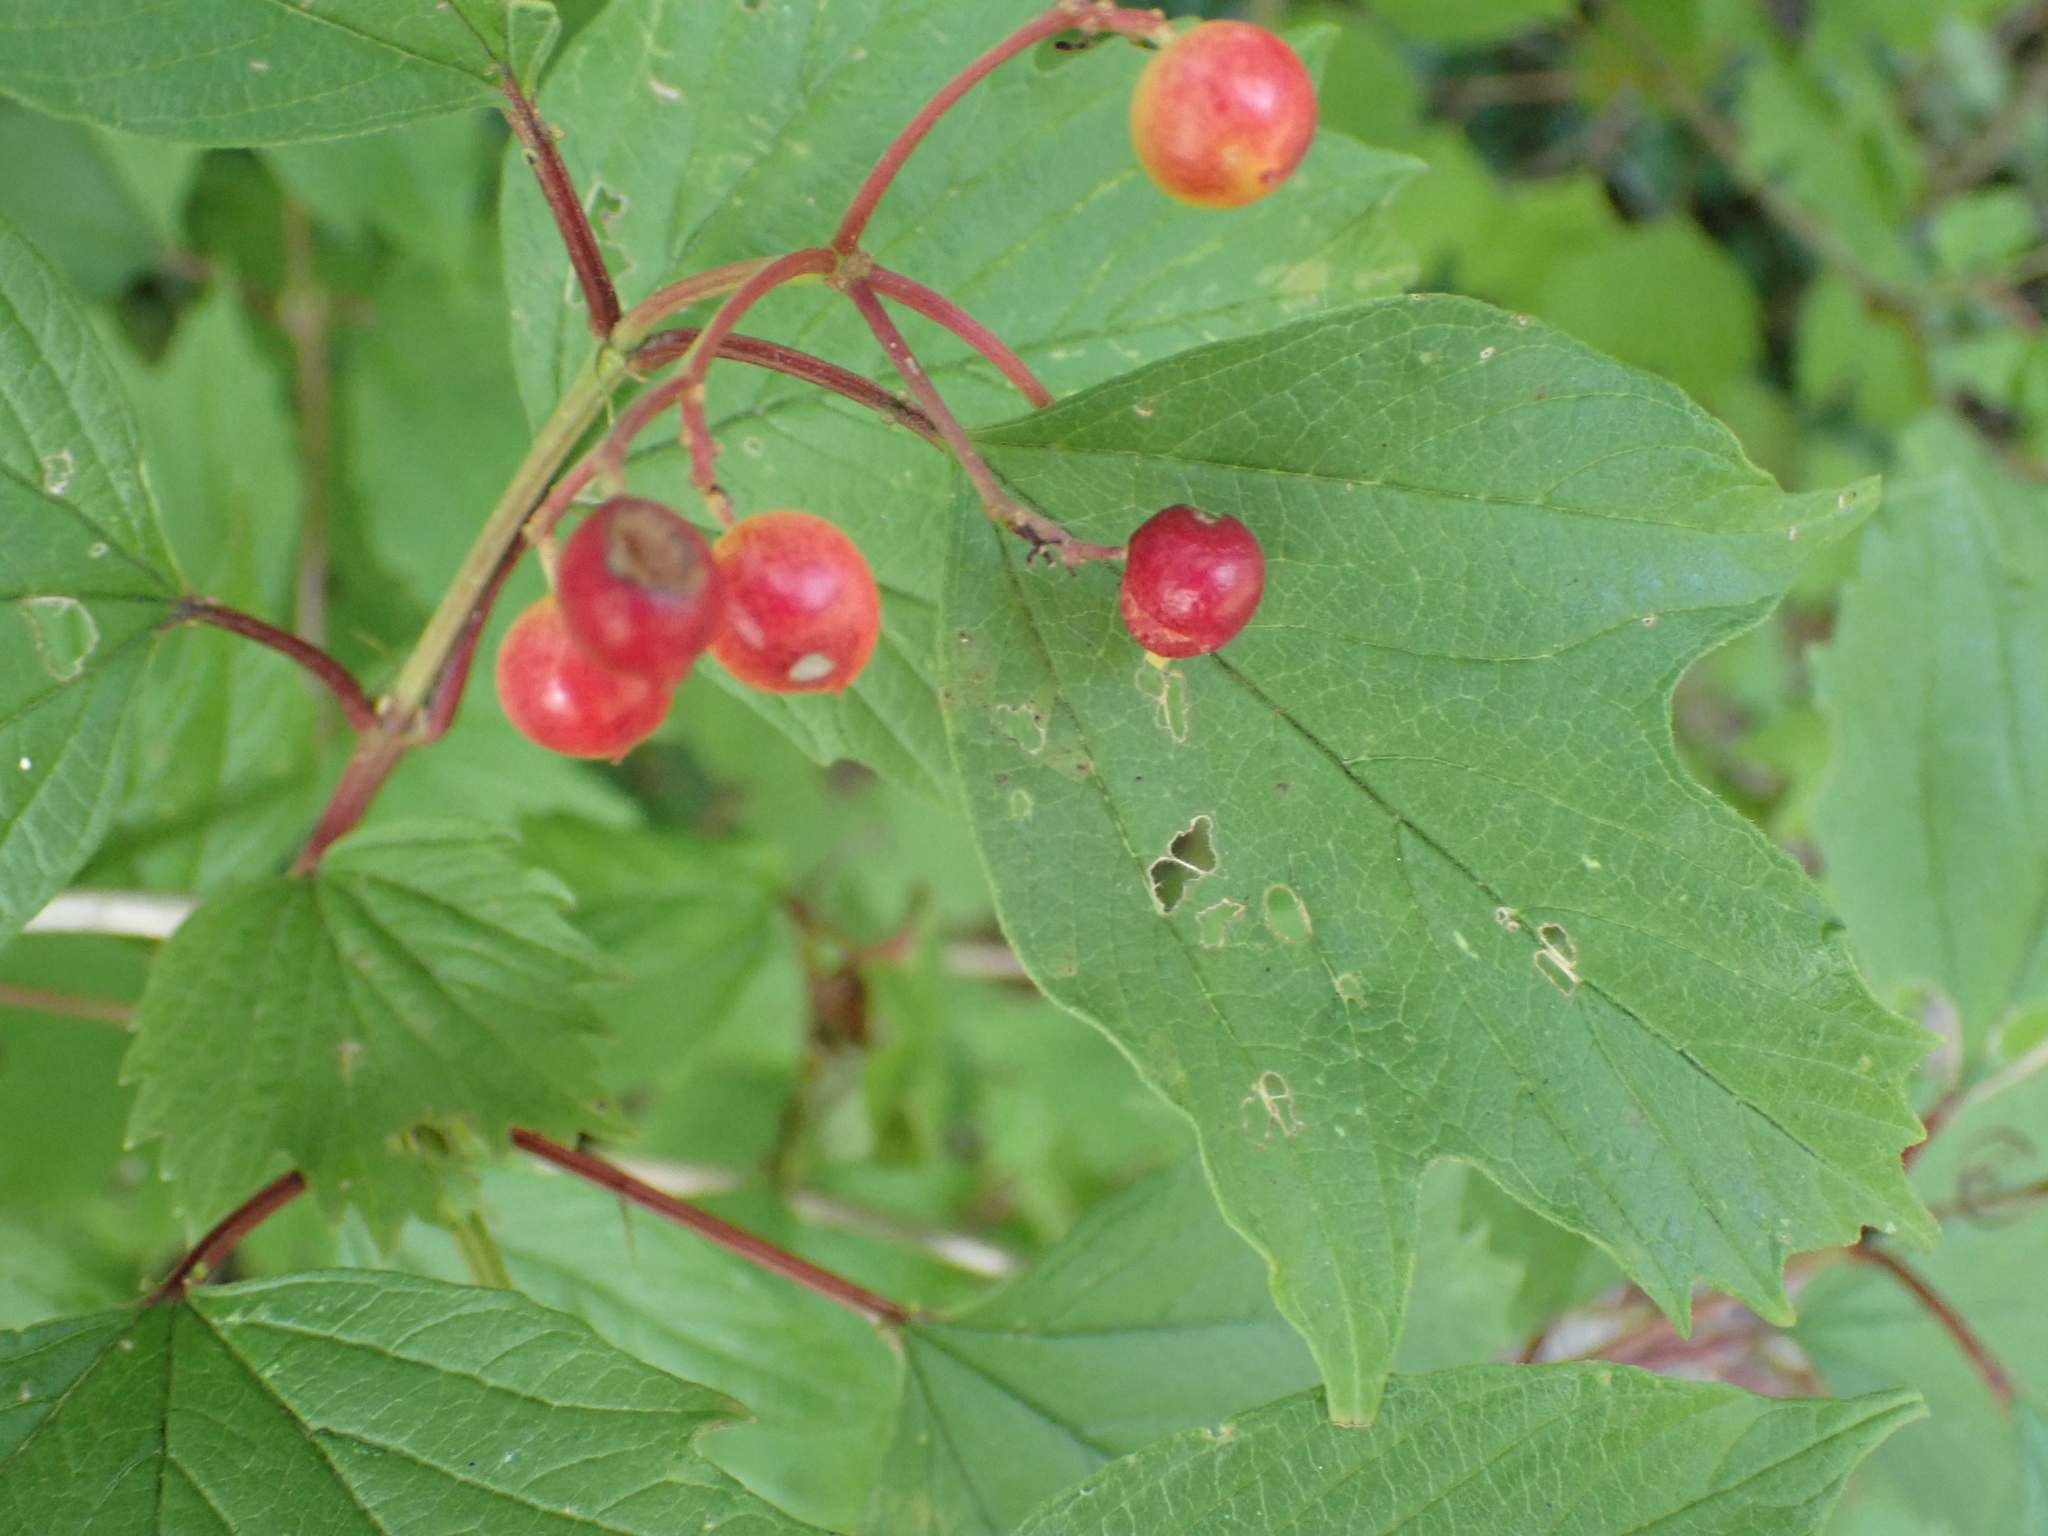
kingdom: Plantae
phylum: Tracheophyta
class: Magnoliopsida
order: Dipsacales
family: Viburnaceae
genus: Viburnum
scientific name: Viburnum opulus
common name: Guelder-rose
